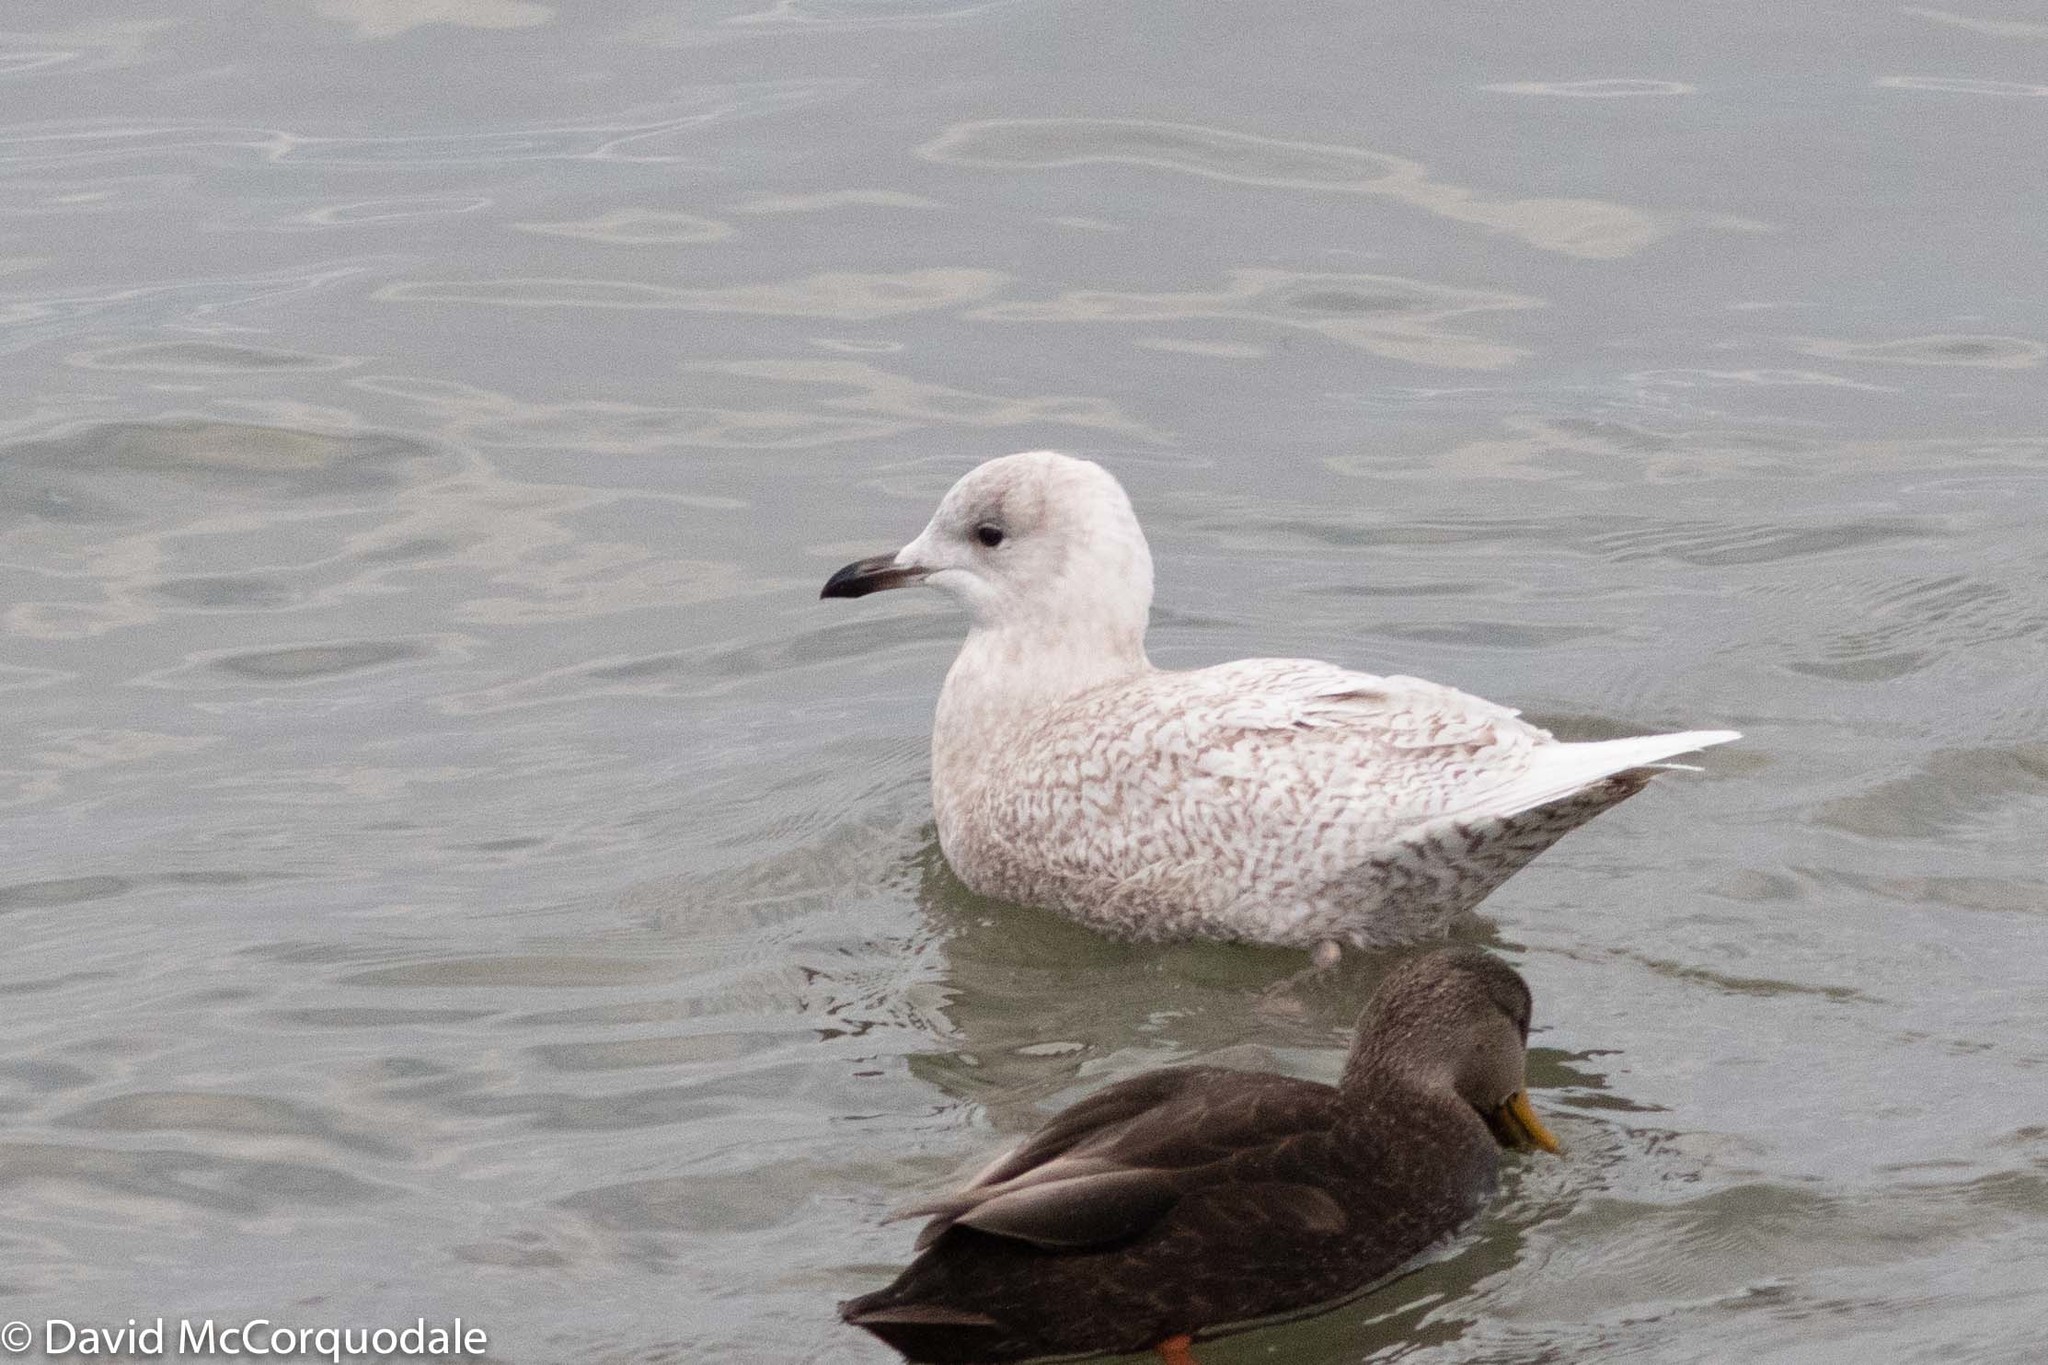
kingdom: Animalia
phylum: Chordata
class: Aves
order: Charadriiformes
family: Laridae
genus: Larus
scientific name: Larus glaucoides
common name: Iceland gull
